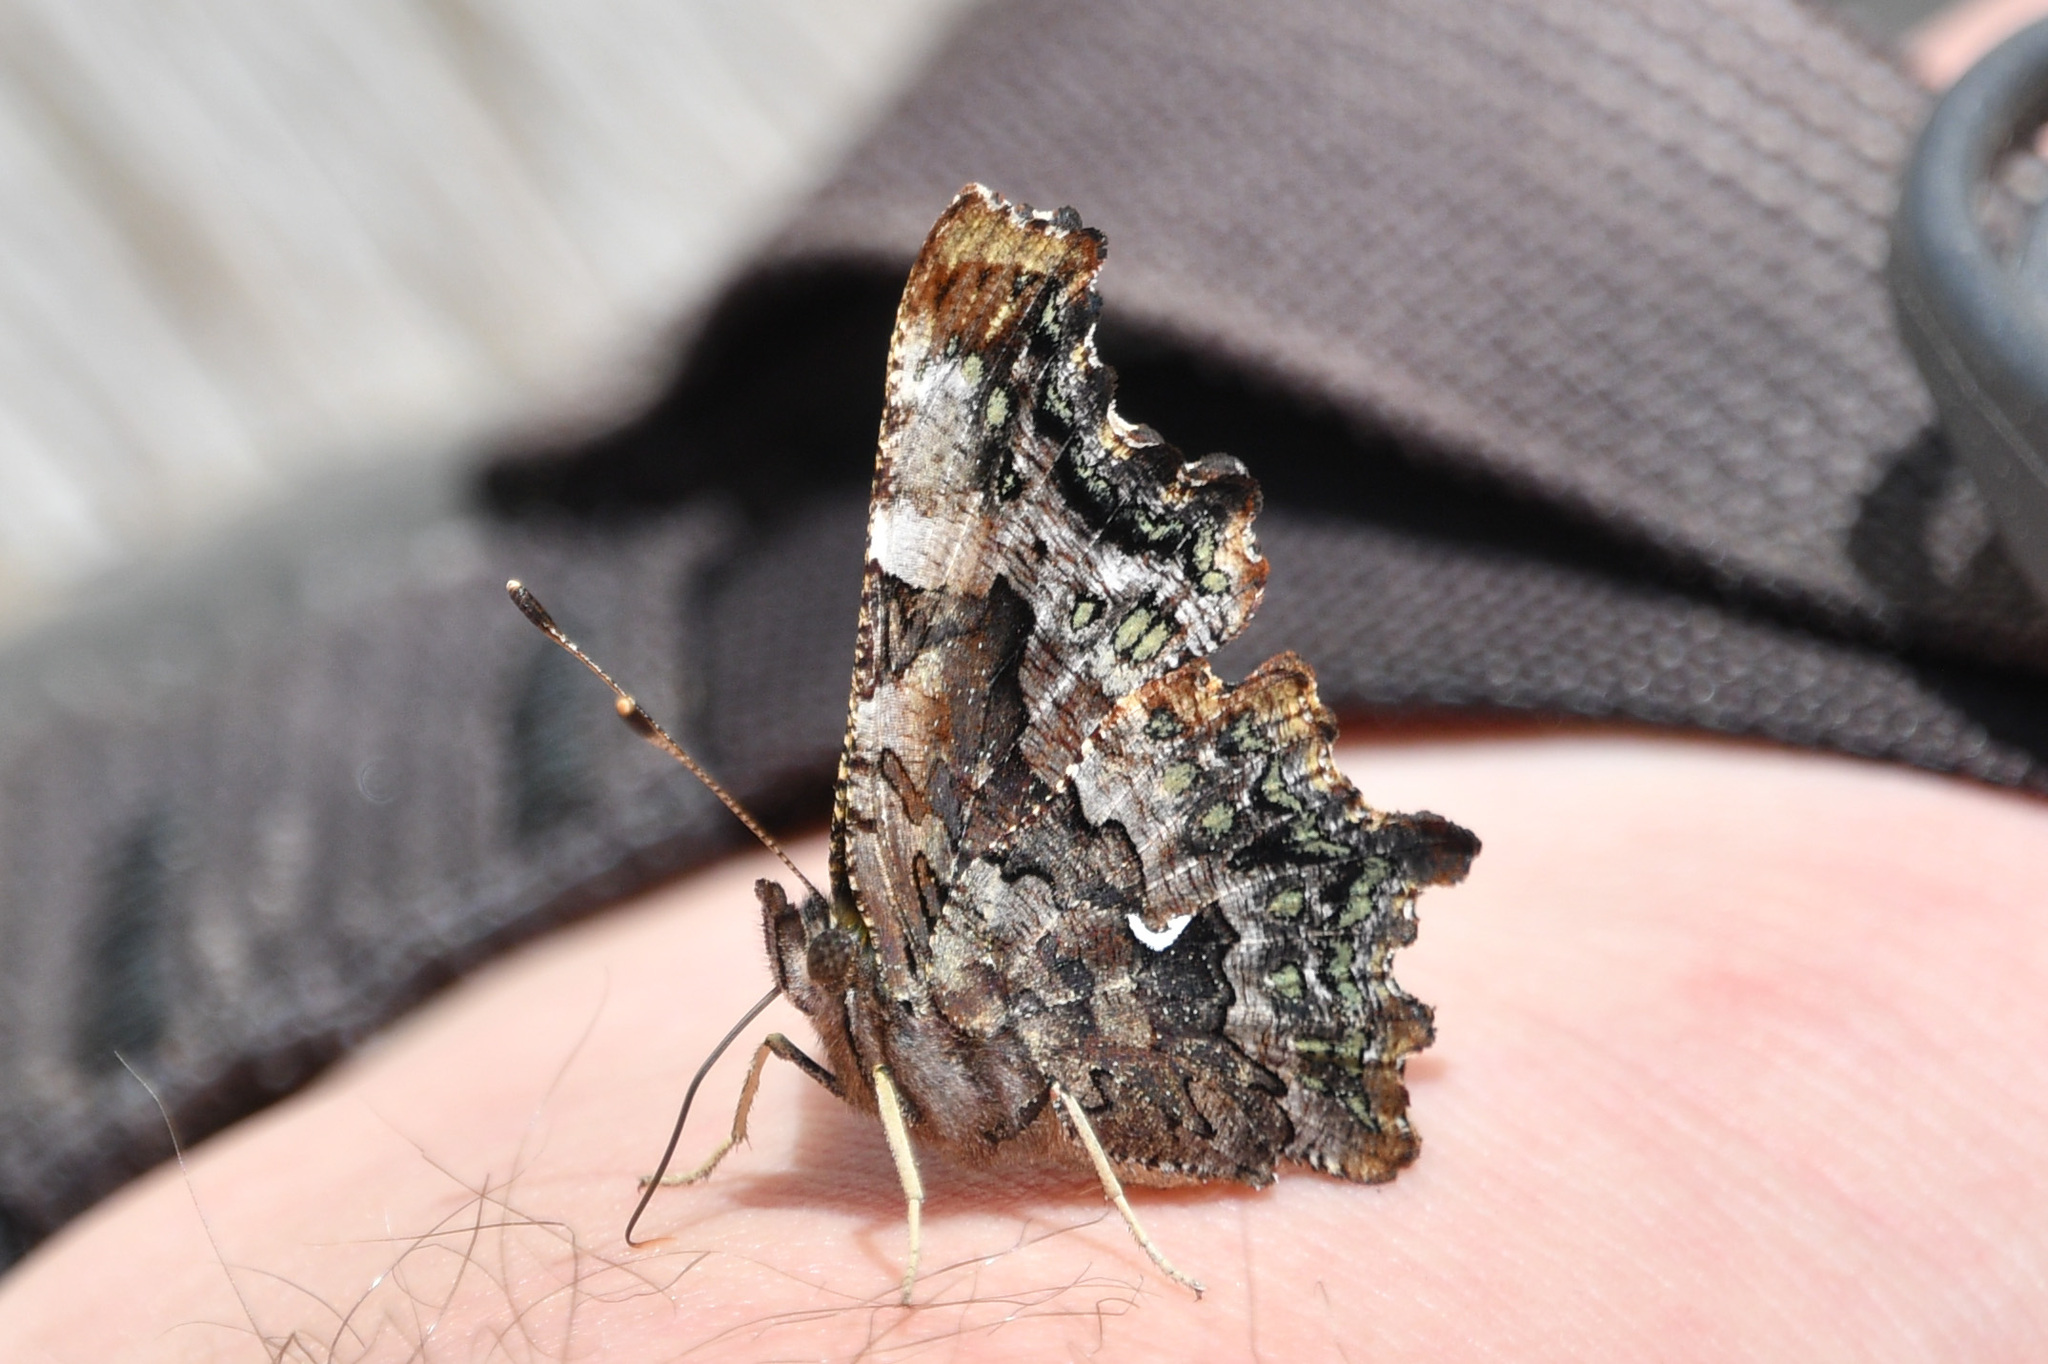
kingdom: Animalia
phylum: Arthropoda
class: Insecta
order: Lepidoptera
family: Nymphalidae
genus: Polygonia
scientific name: Polygonia faunus
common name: Green comma
